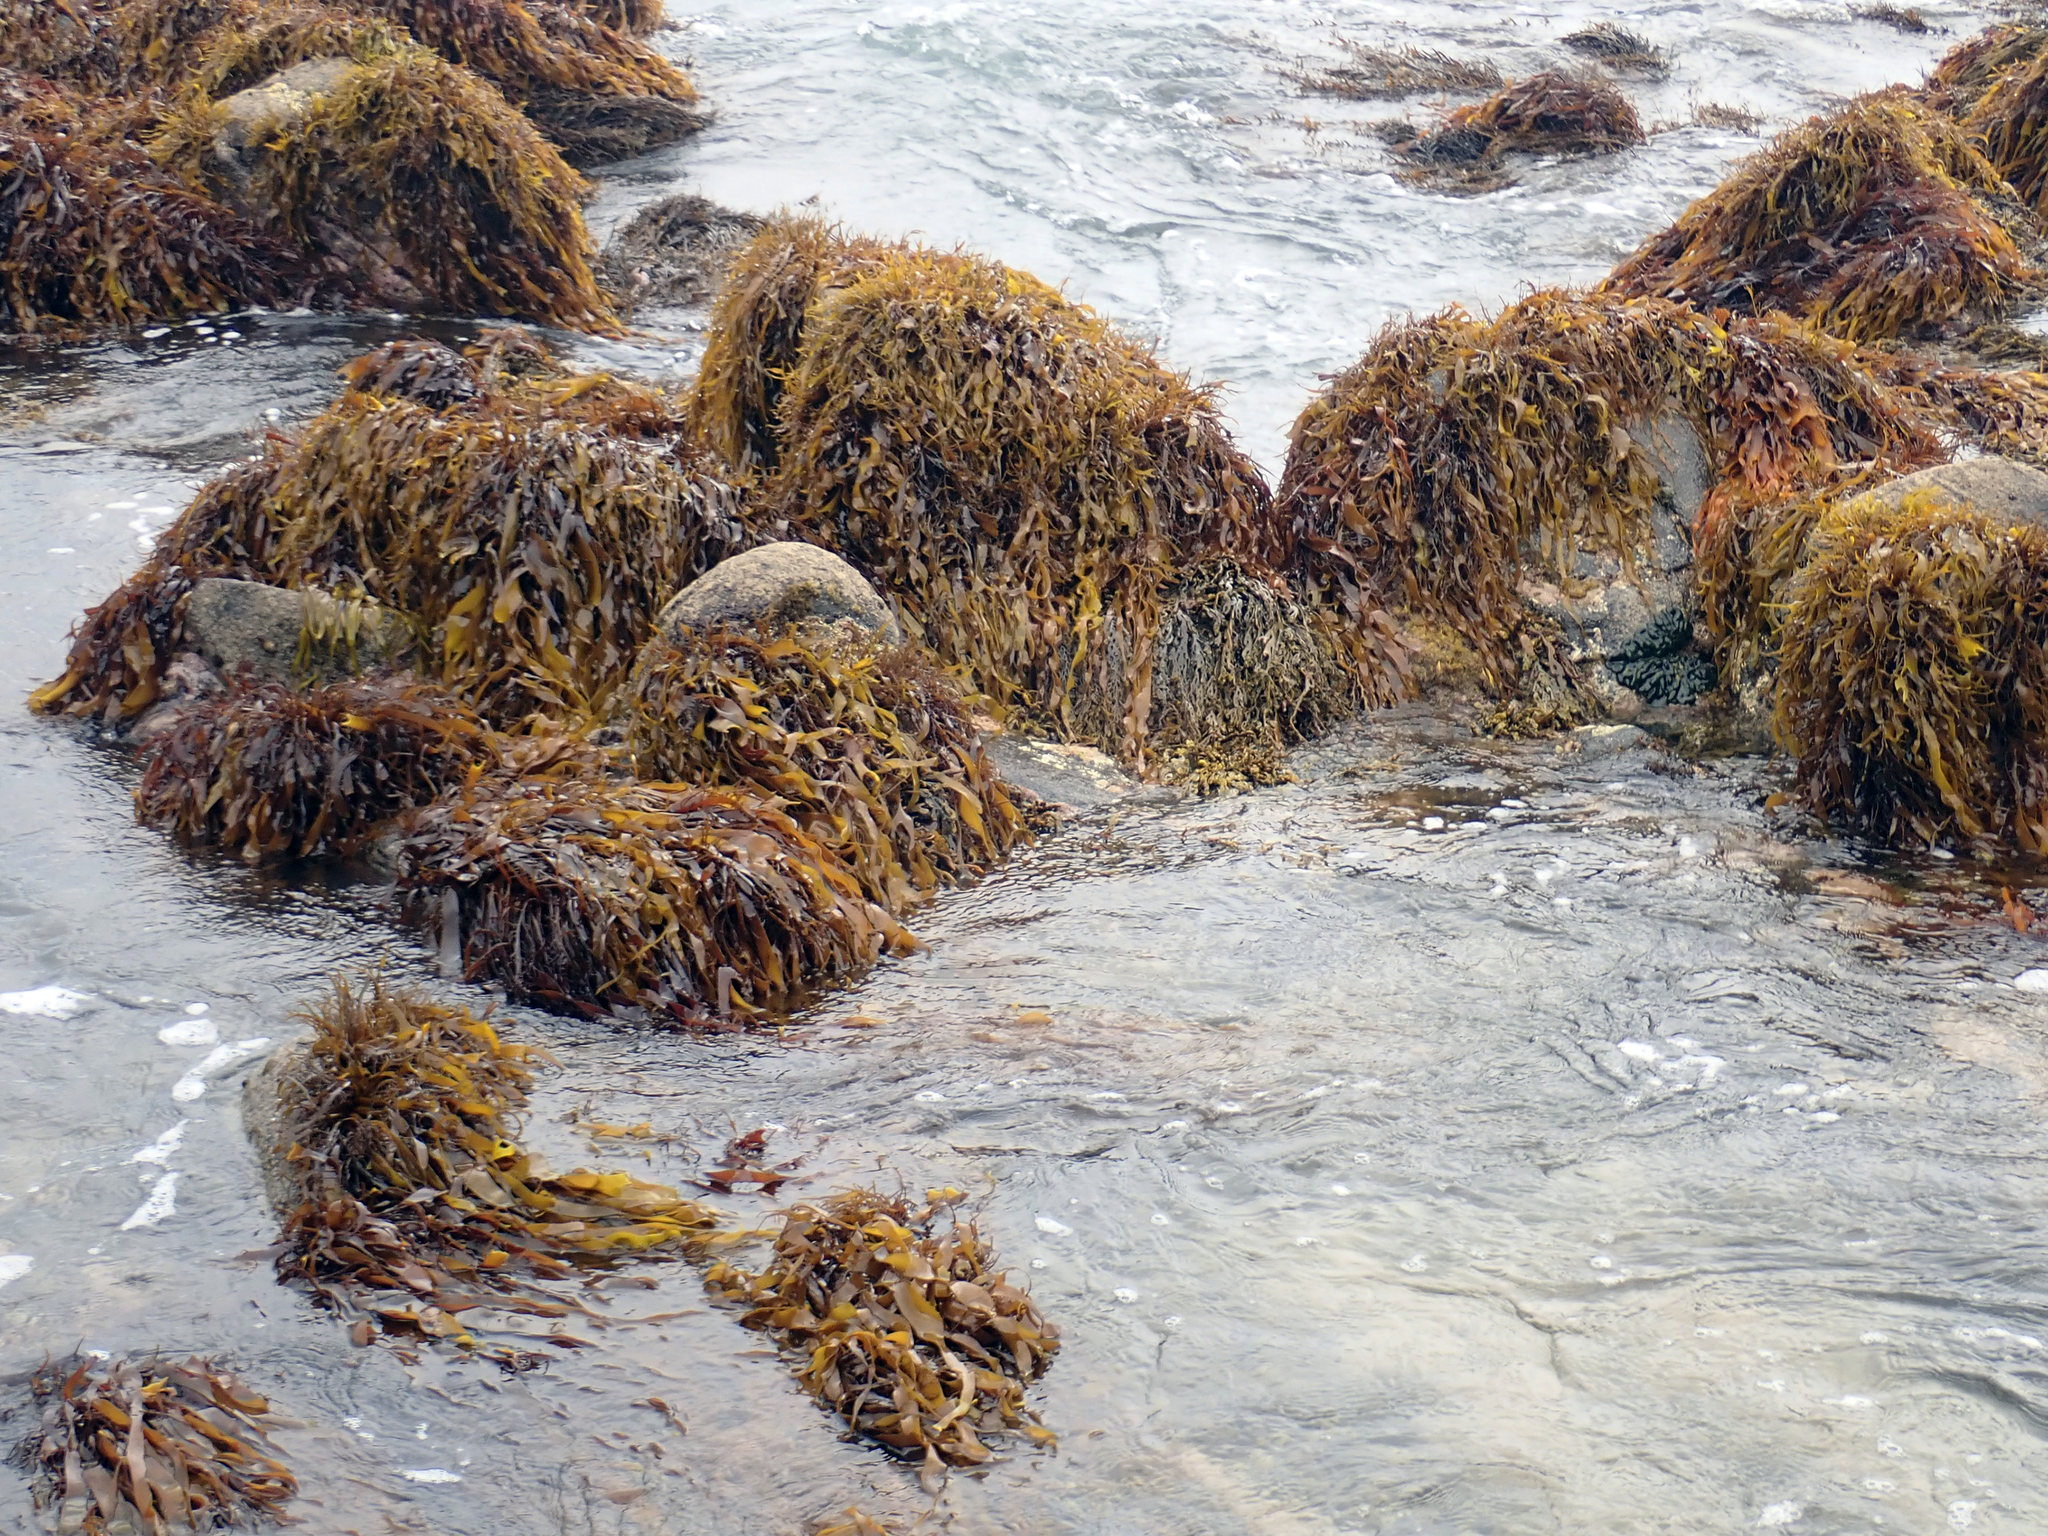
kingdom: Plantae
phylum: Rhodophyta
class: Florideophyceae
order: Halymeniales
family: Halymeniaceae
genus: Pachymenia
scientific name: Pachymenia lusoria
